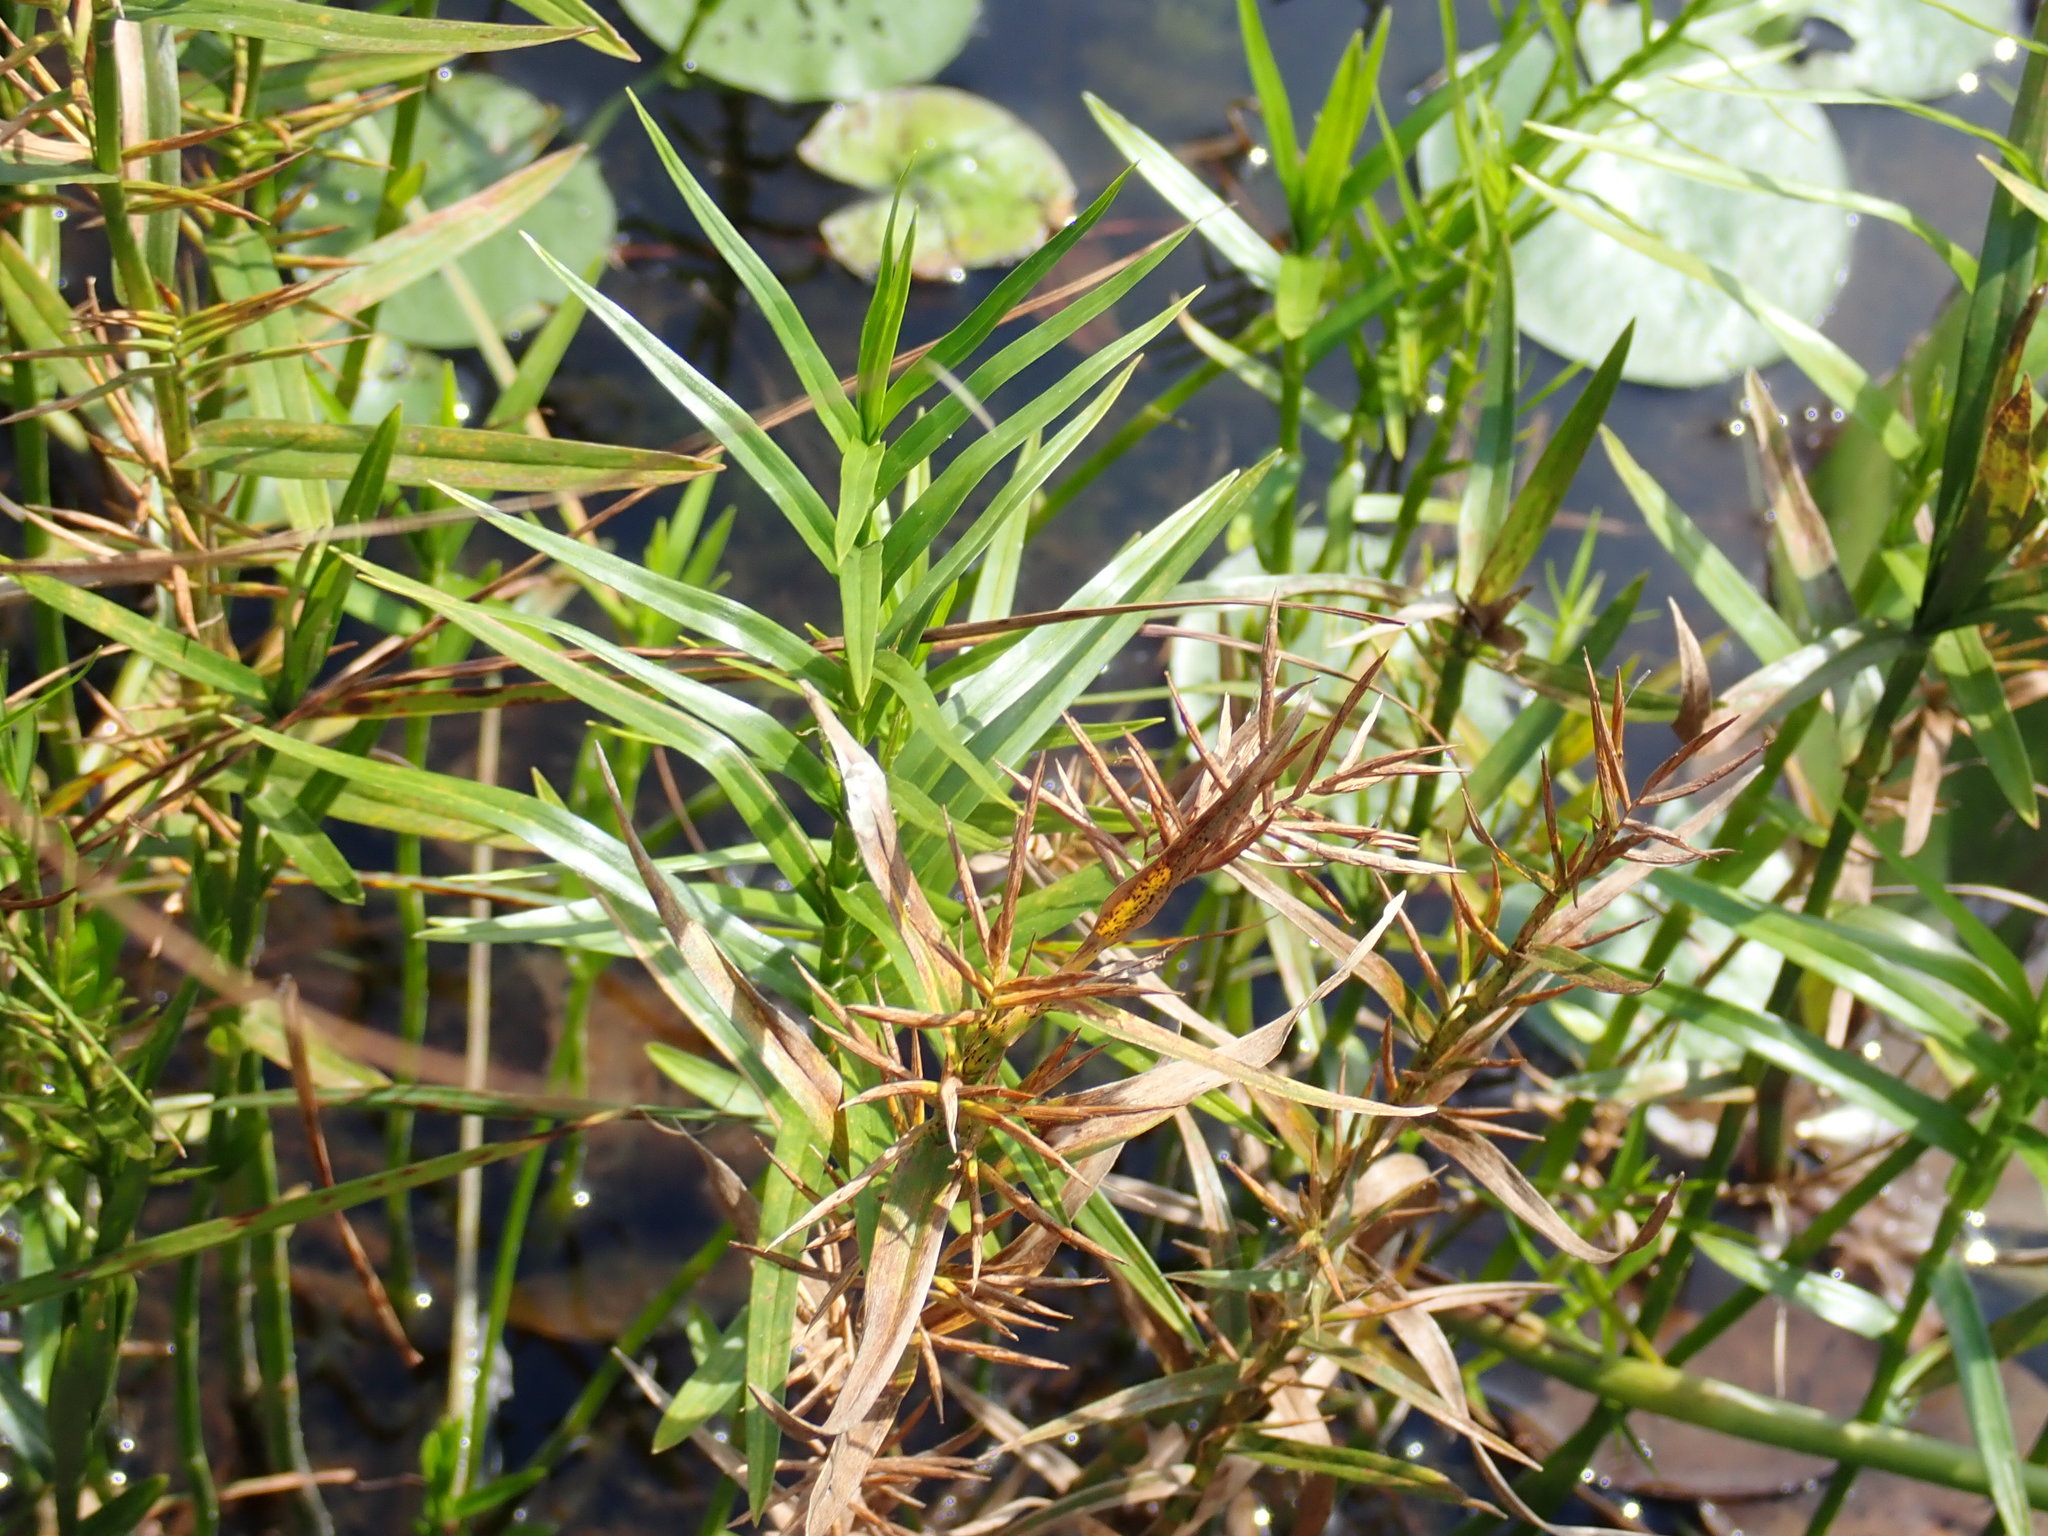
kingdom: Plantae
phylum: Tracheophyta
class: Liliopsida
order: Poales
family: Cyperaceae
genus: Dulichium
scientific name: Dulichium arundinaceum
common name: Three-way sedge
